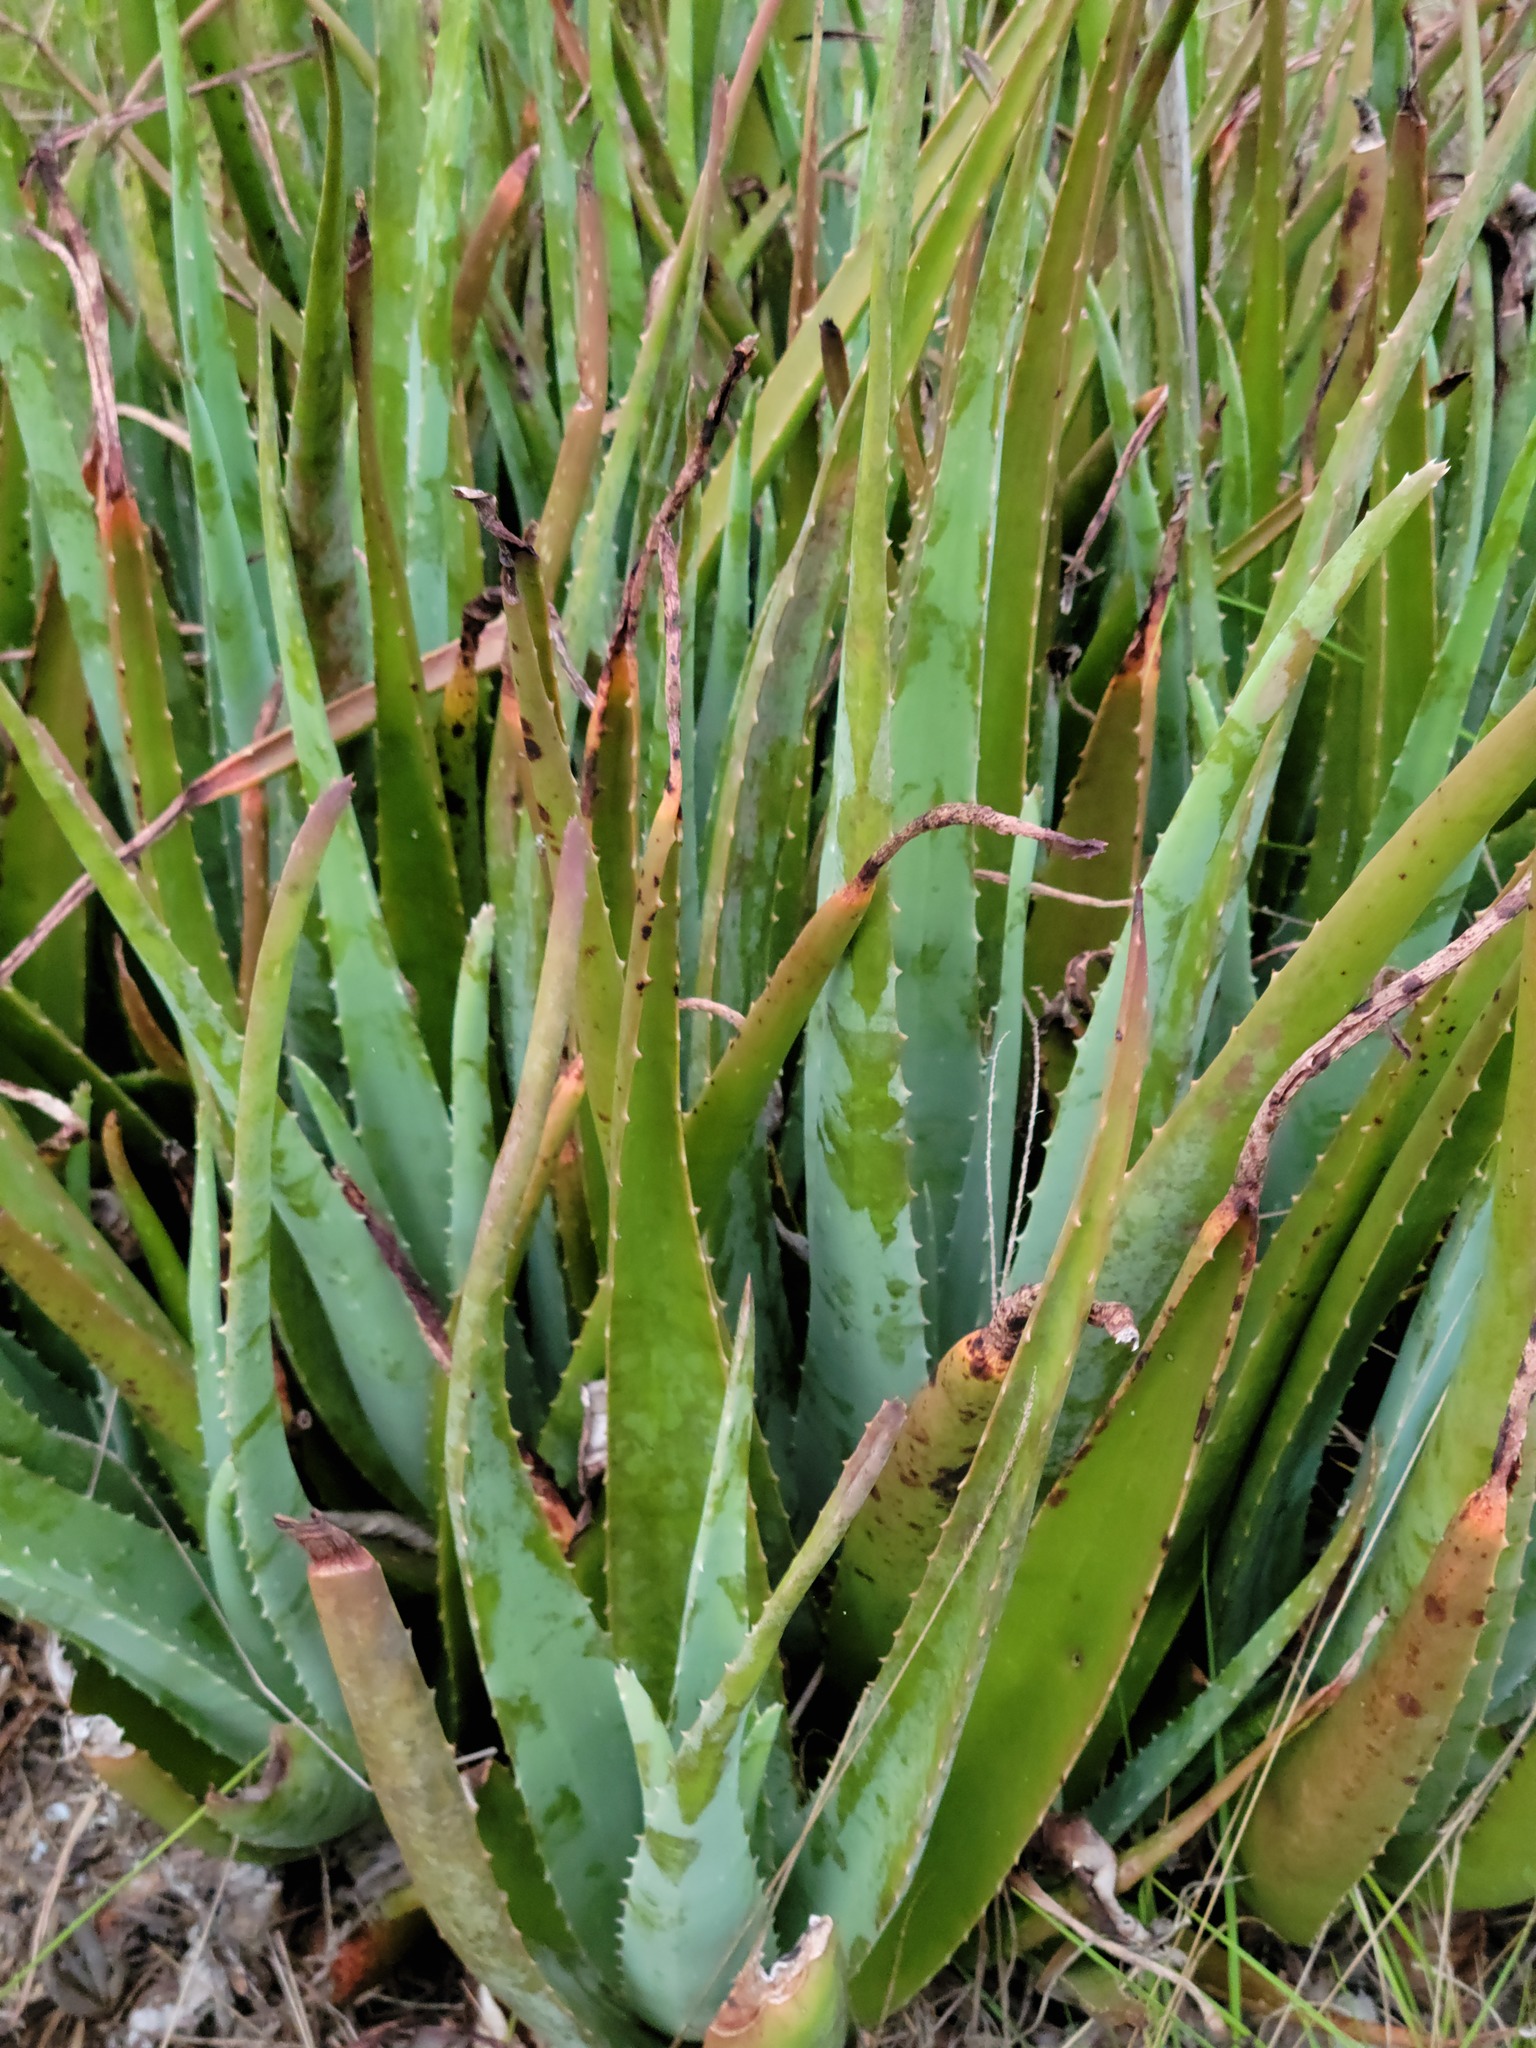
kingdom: Plantae
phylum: Tracheophyta
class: Liliopsida
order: Asparagales
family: Asphodelaceae
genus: Aloe
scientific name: Aloe vera
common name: Barbados aloe
